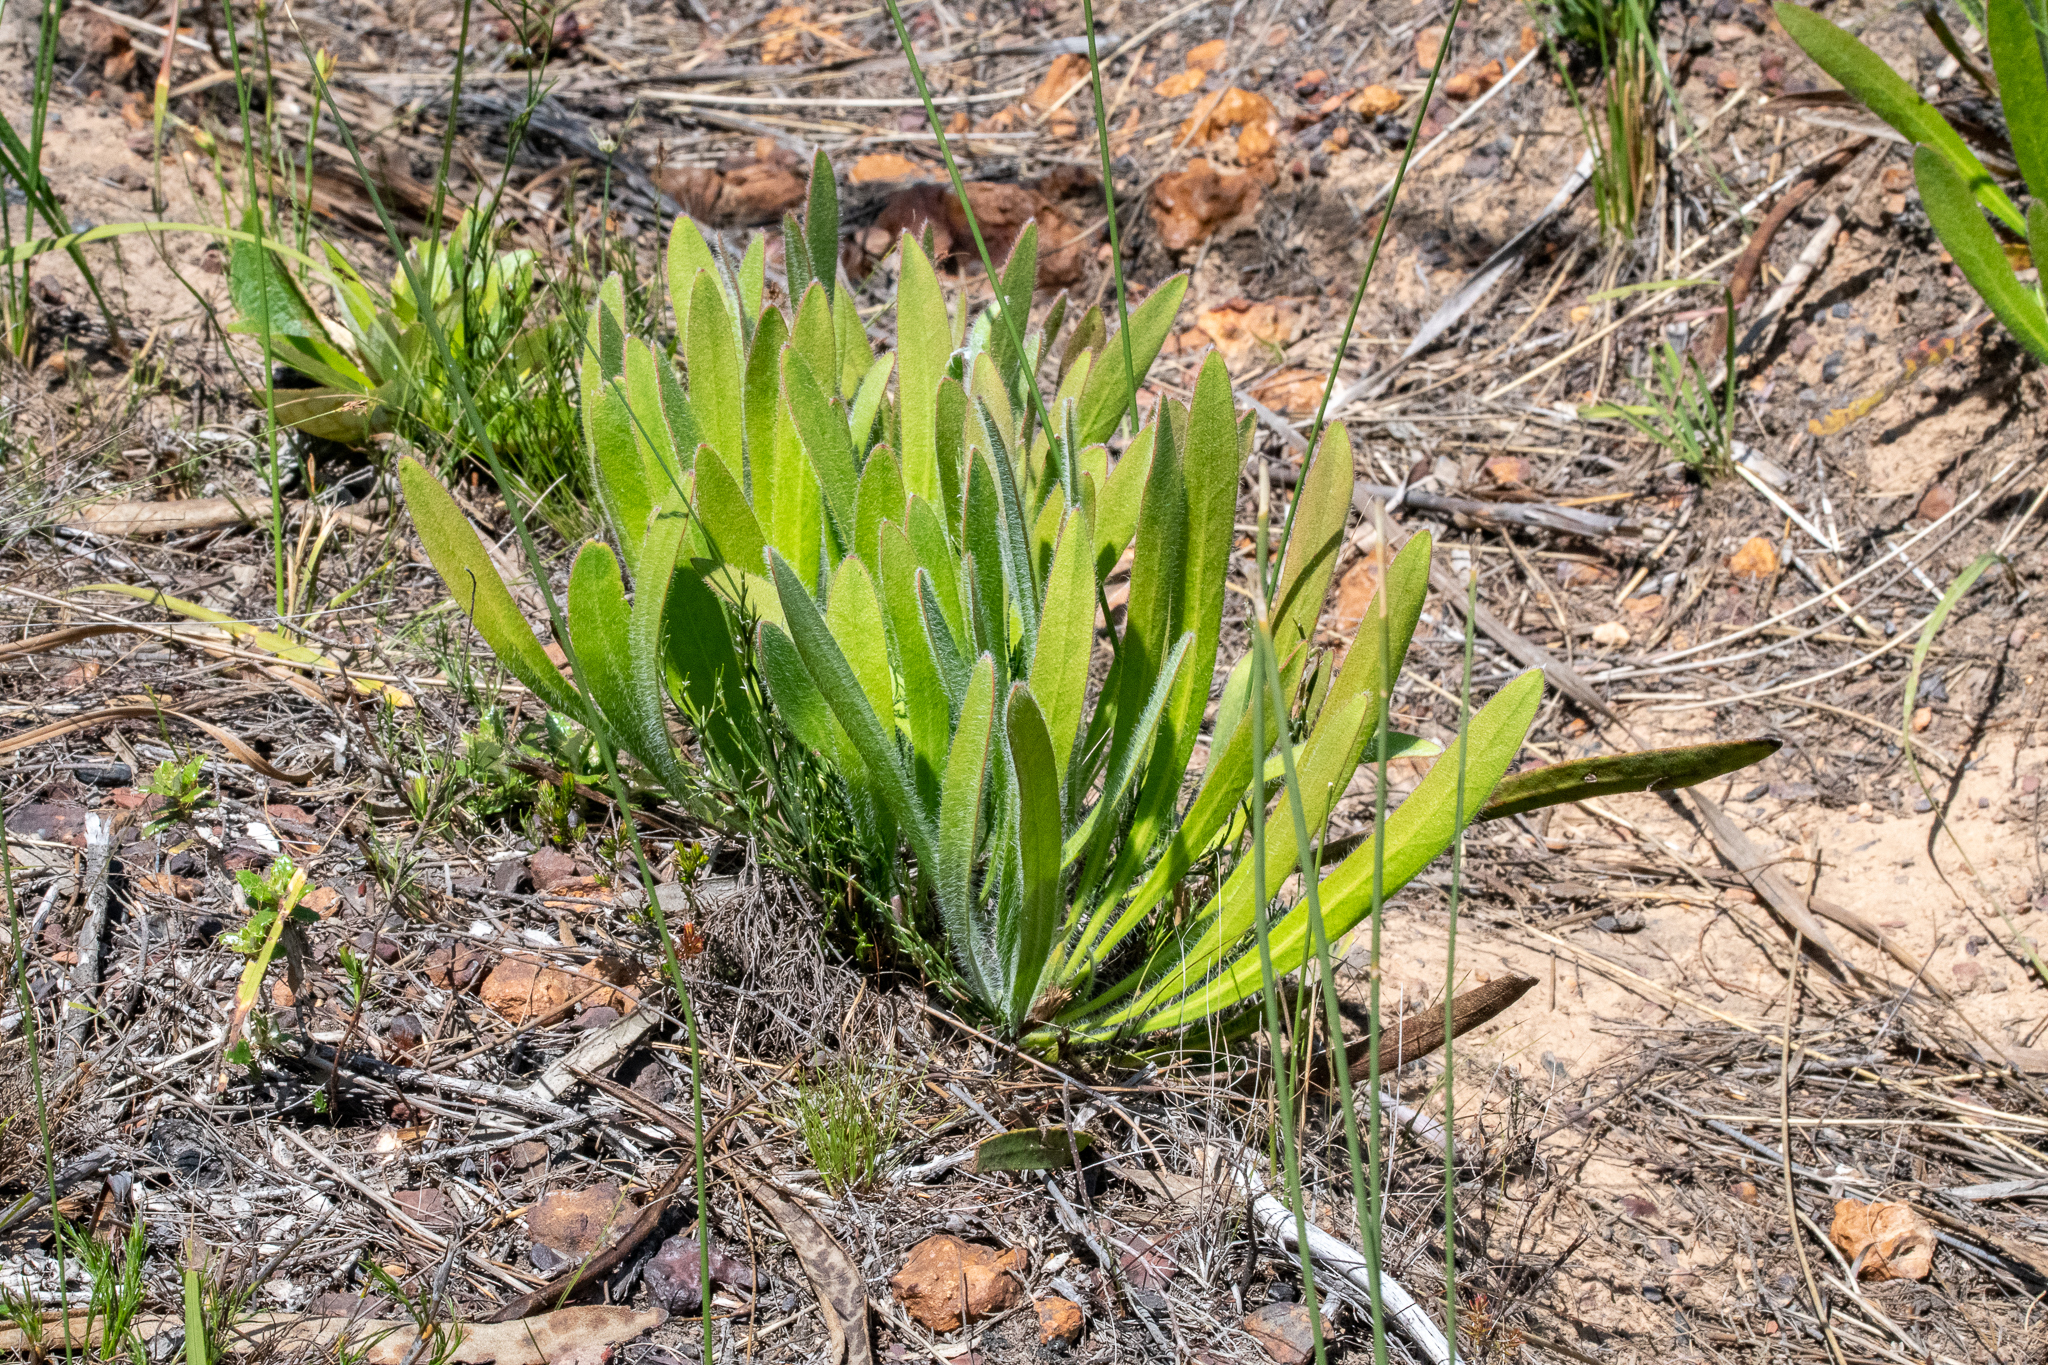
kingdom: Plantae
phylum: Tracheophyta
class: Magnoliopsida
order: Proteales
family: Proteaceae
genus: Protea
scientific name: Protea scabra
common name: Sandpaper-leaf sugarbush
